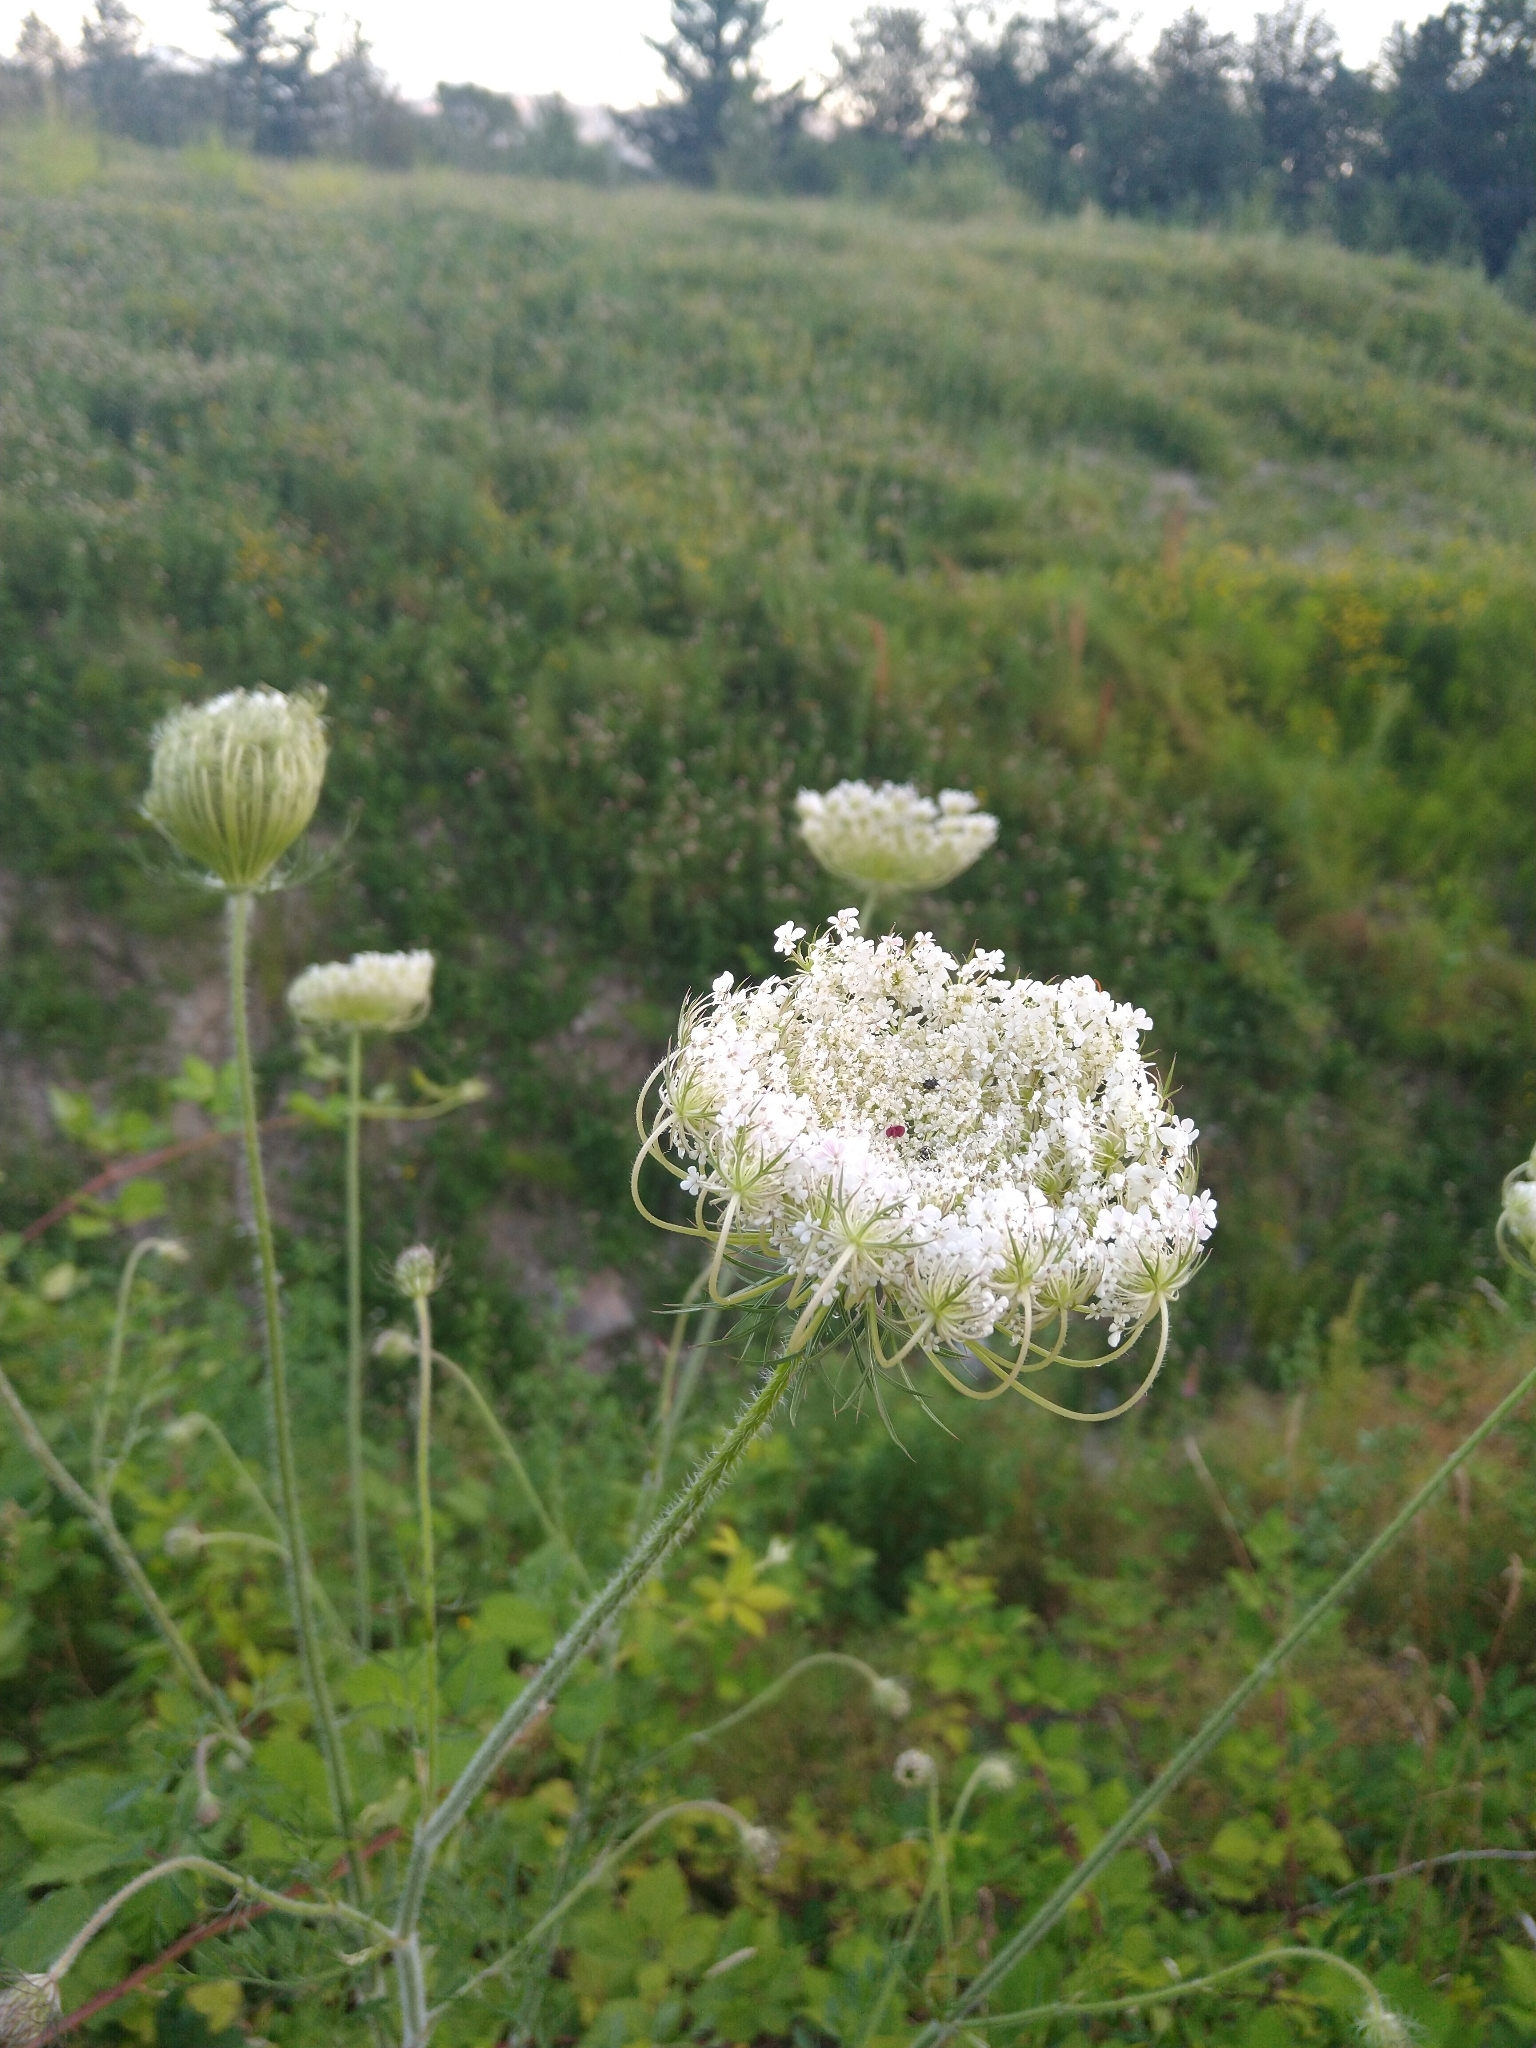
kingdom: Plantae
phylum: Tracheophyta
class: Magnoliopsida
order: Apiales
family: Apiaceae
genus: Daucus
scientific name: Daucus carota
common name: Wild carrot
